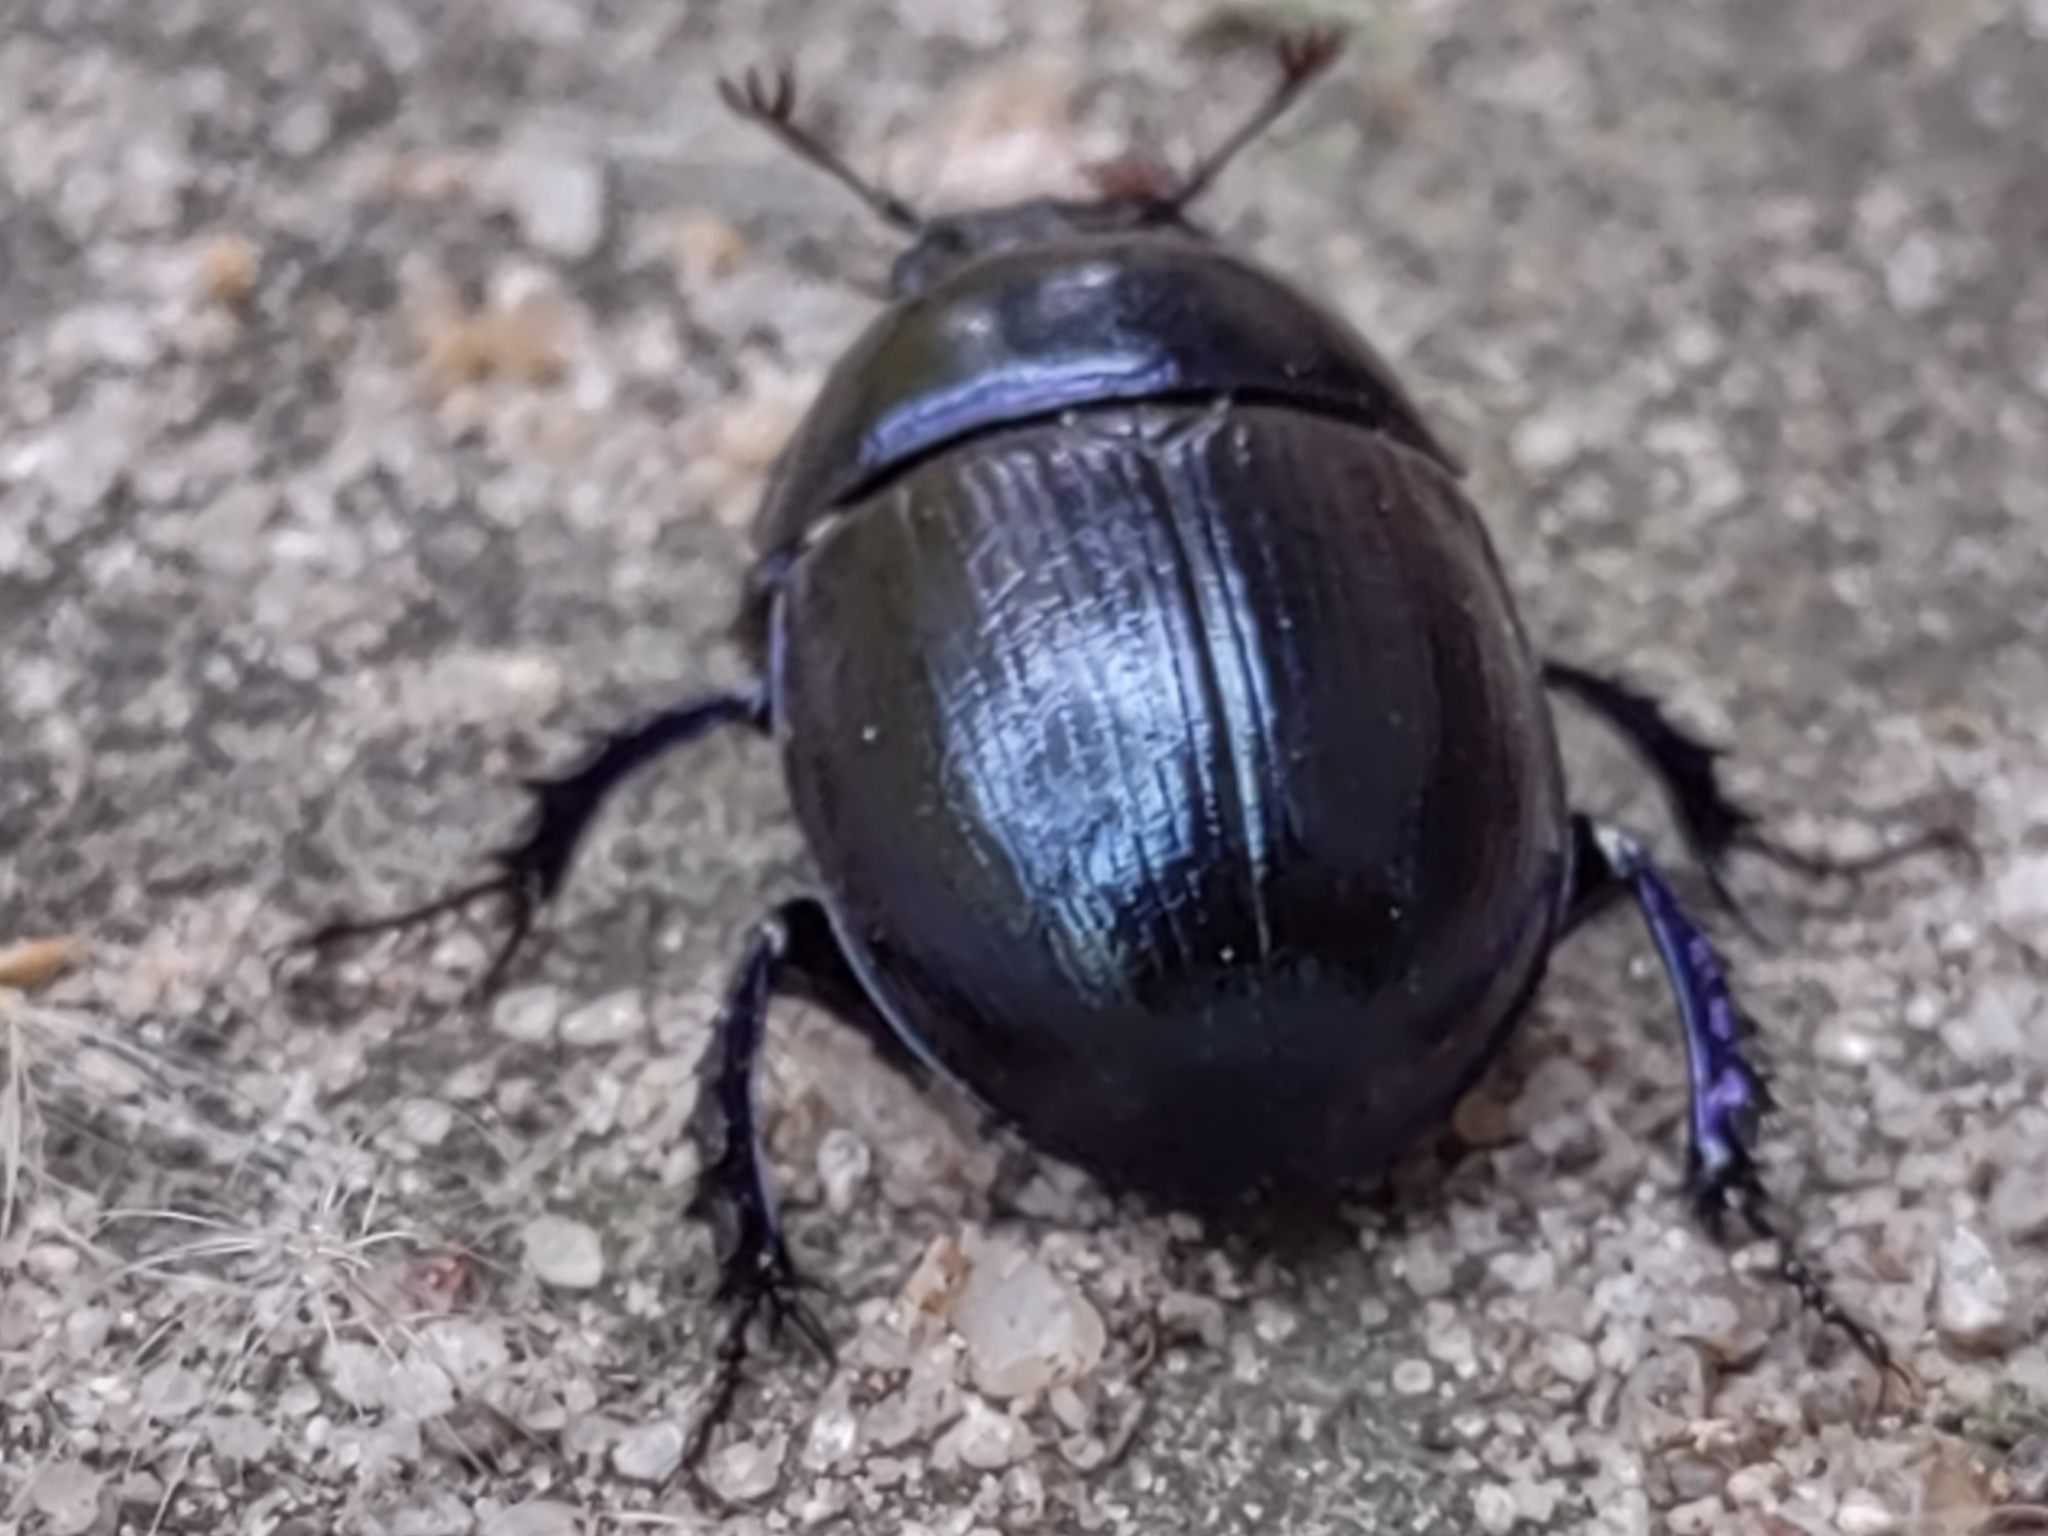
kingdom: Animalia
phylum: Arthropoda
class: Insecta
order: Coleoptera
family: Geotrupidae
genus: Anoplotrupes
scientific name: Anoplotrupes stercorosus
